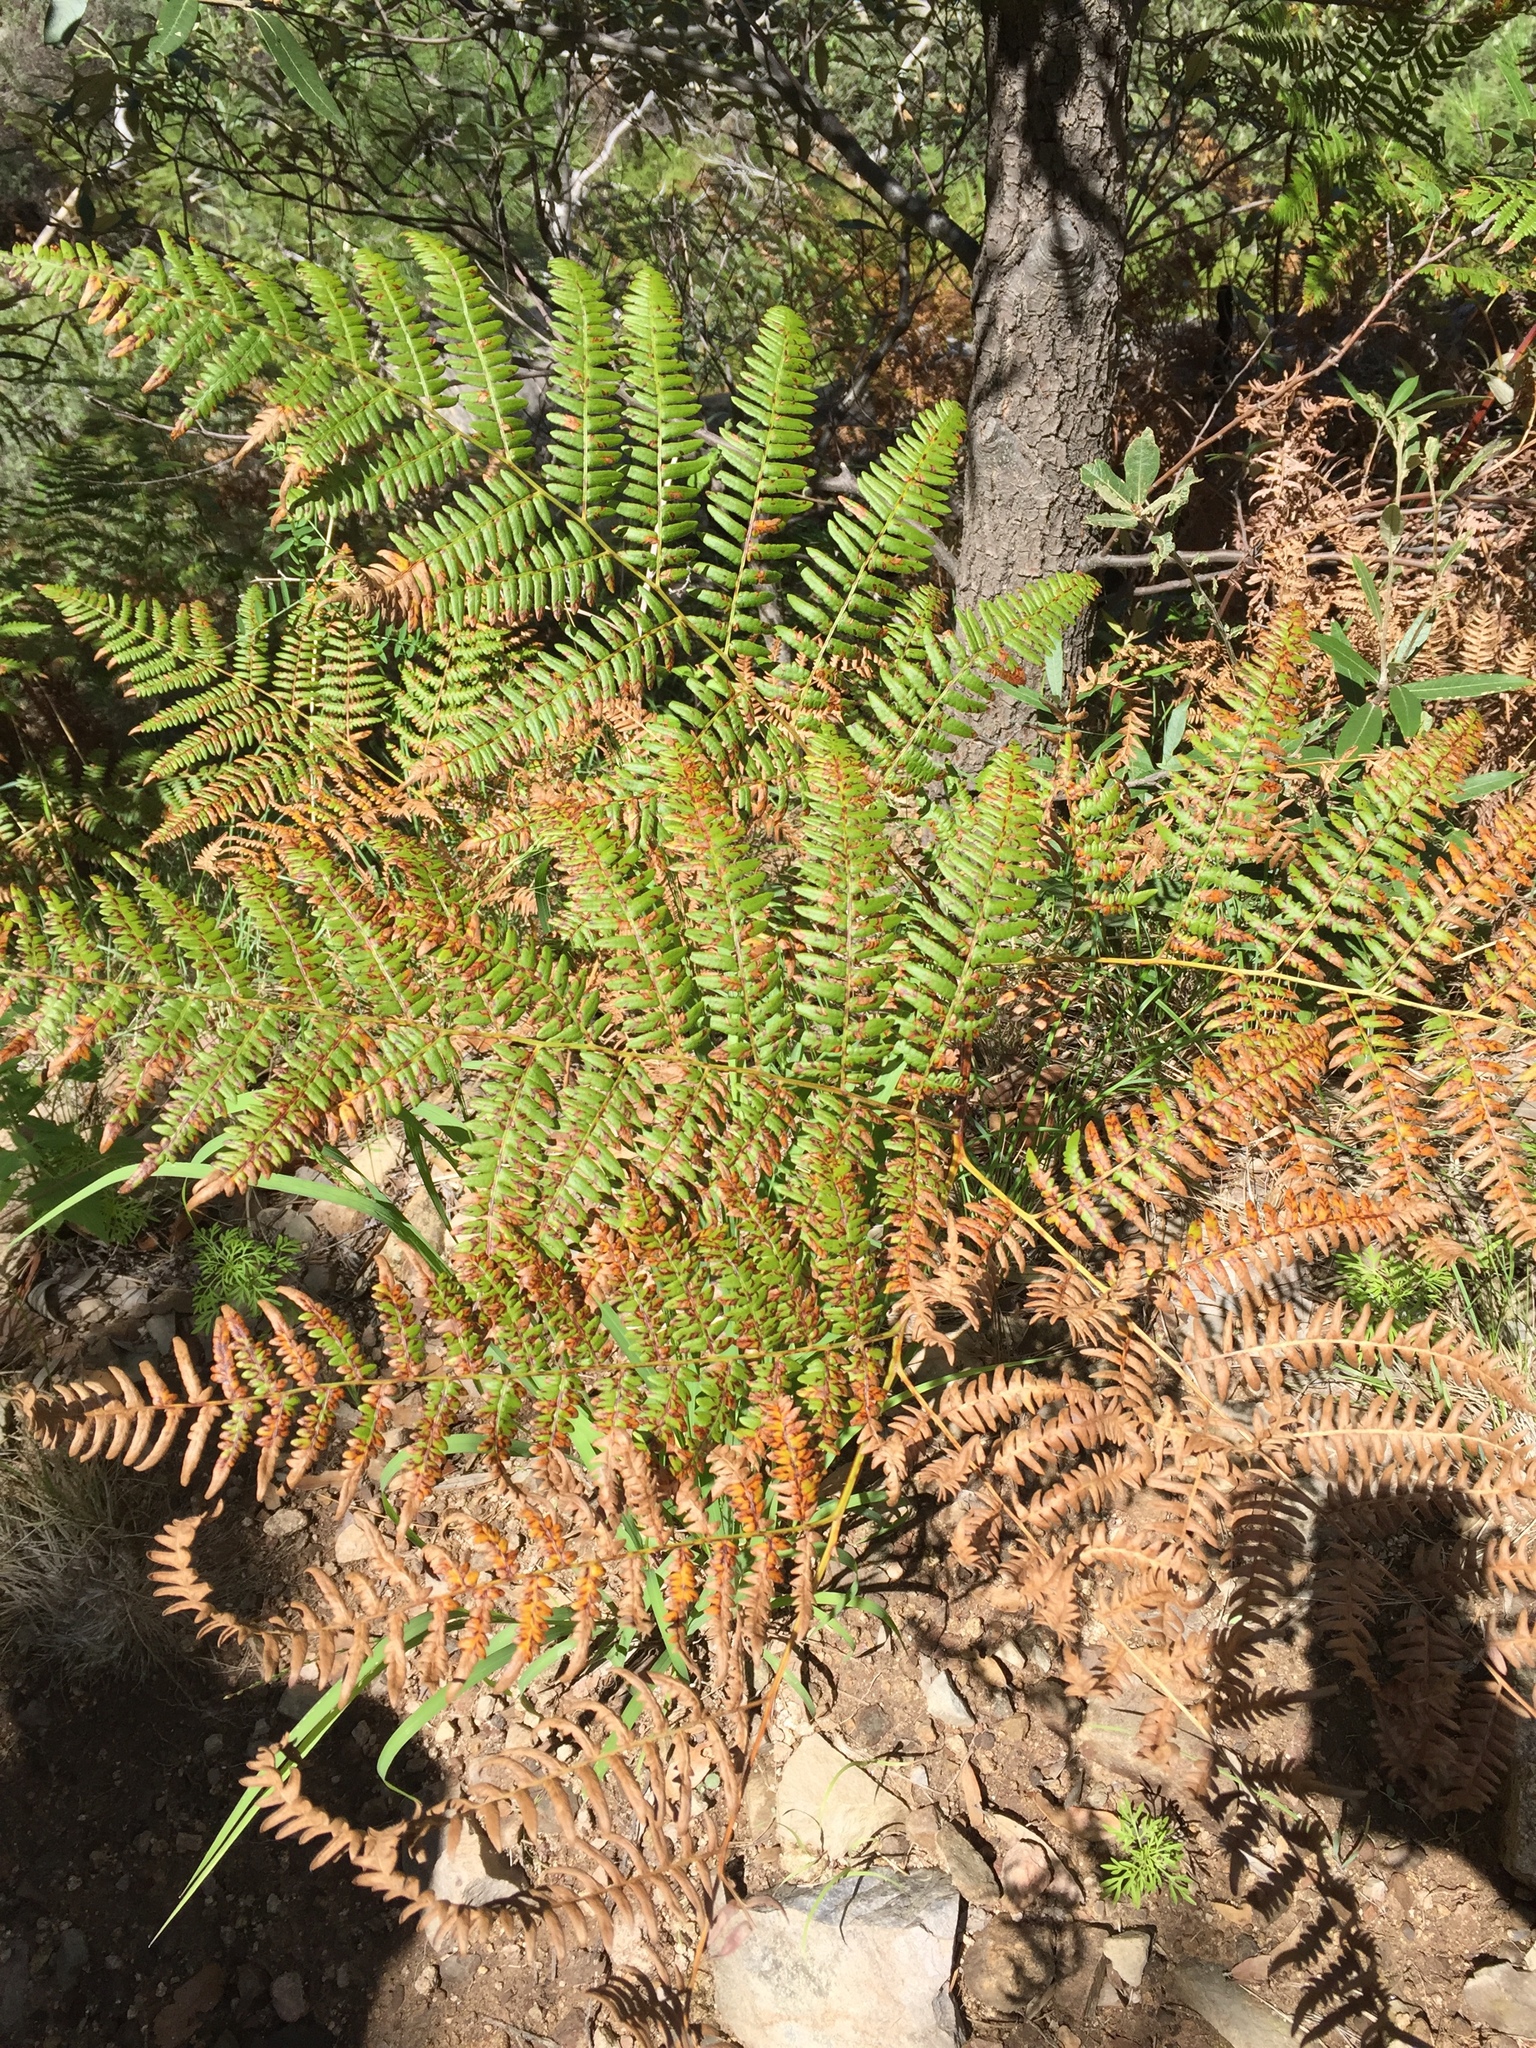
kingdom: Plantae
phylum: Tracheophyta
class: Polypodiopsida
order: Polypodiales
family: Dennstaedtiaceae
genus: Pteridium
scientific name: Pteridium aquilinum
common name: Bracken
